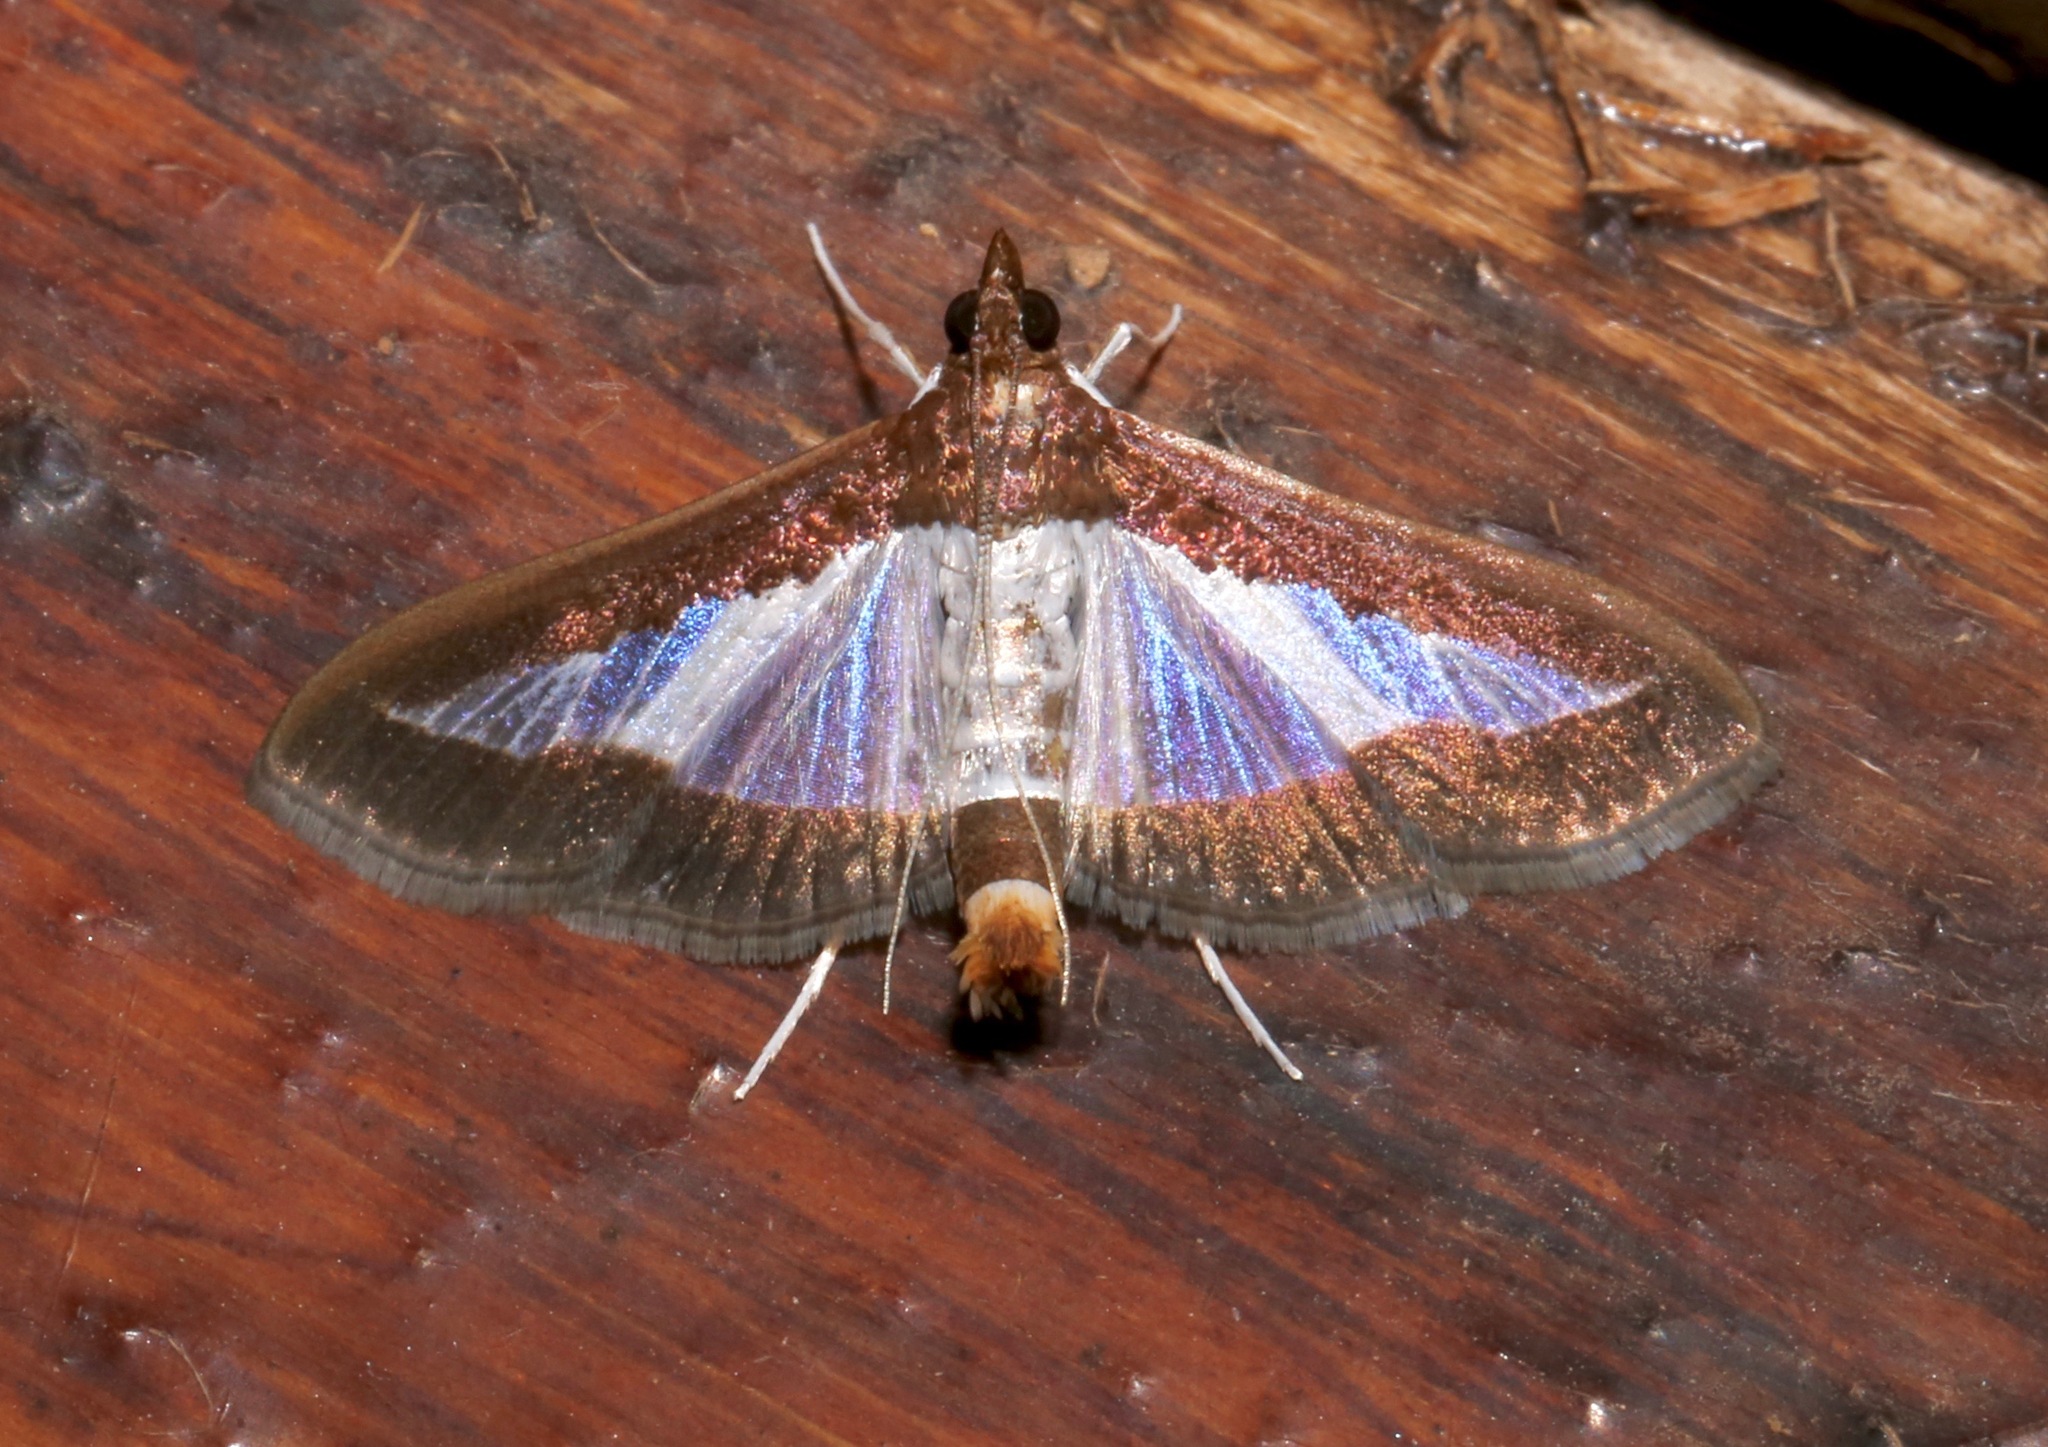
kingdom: Animalia
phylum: Arthropoda
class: Insecta
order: Lepidoptera
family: Crambidae
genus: Diaphania
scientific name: Diaphania indica
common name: Cucumber moth
